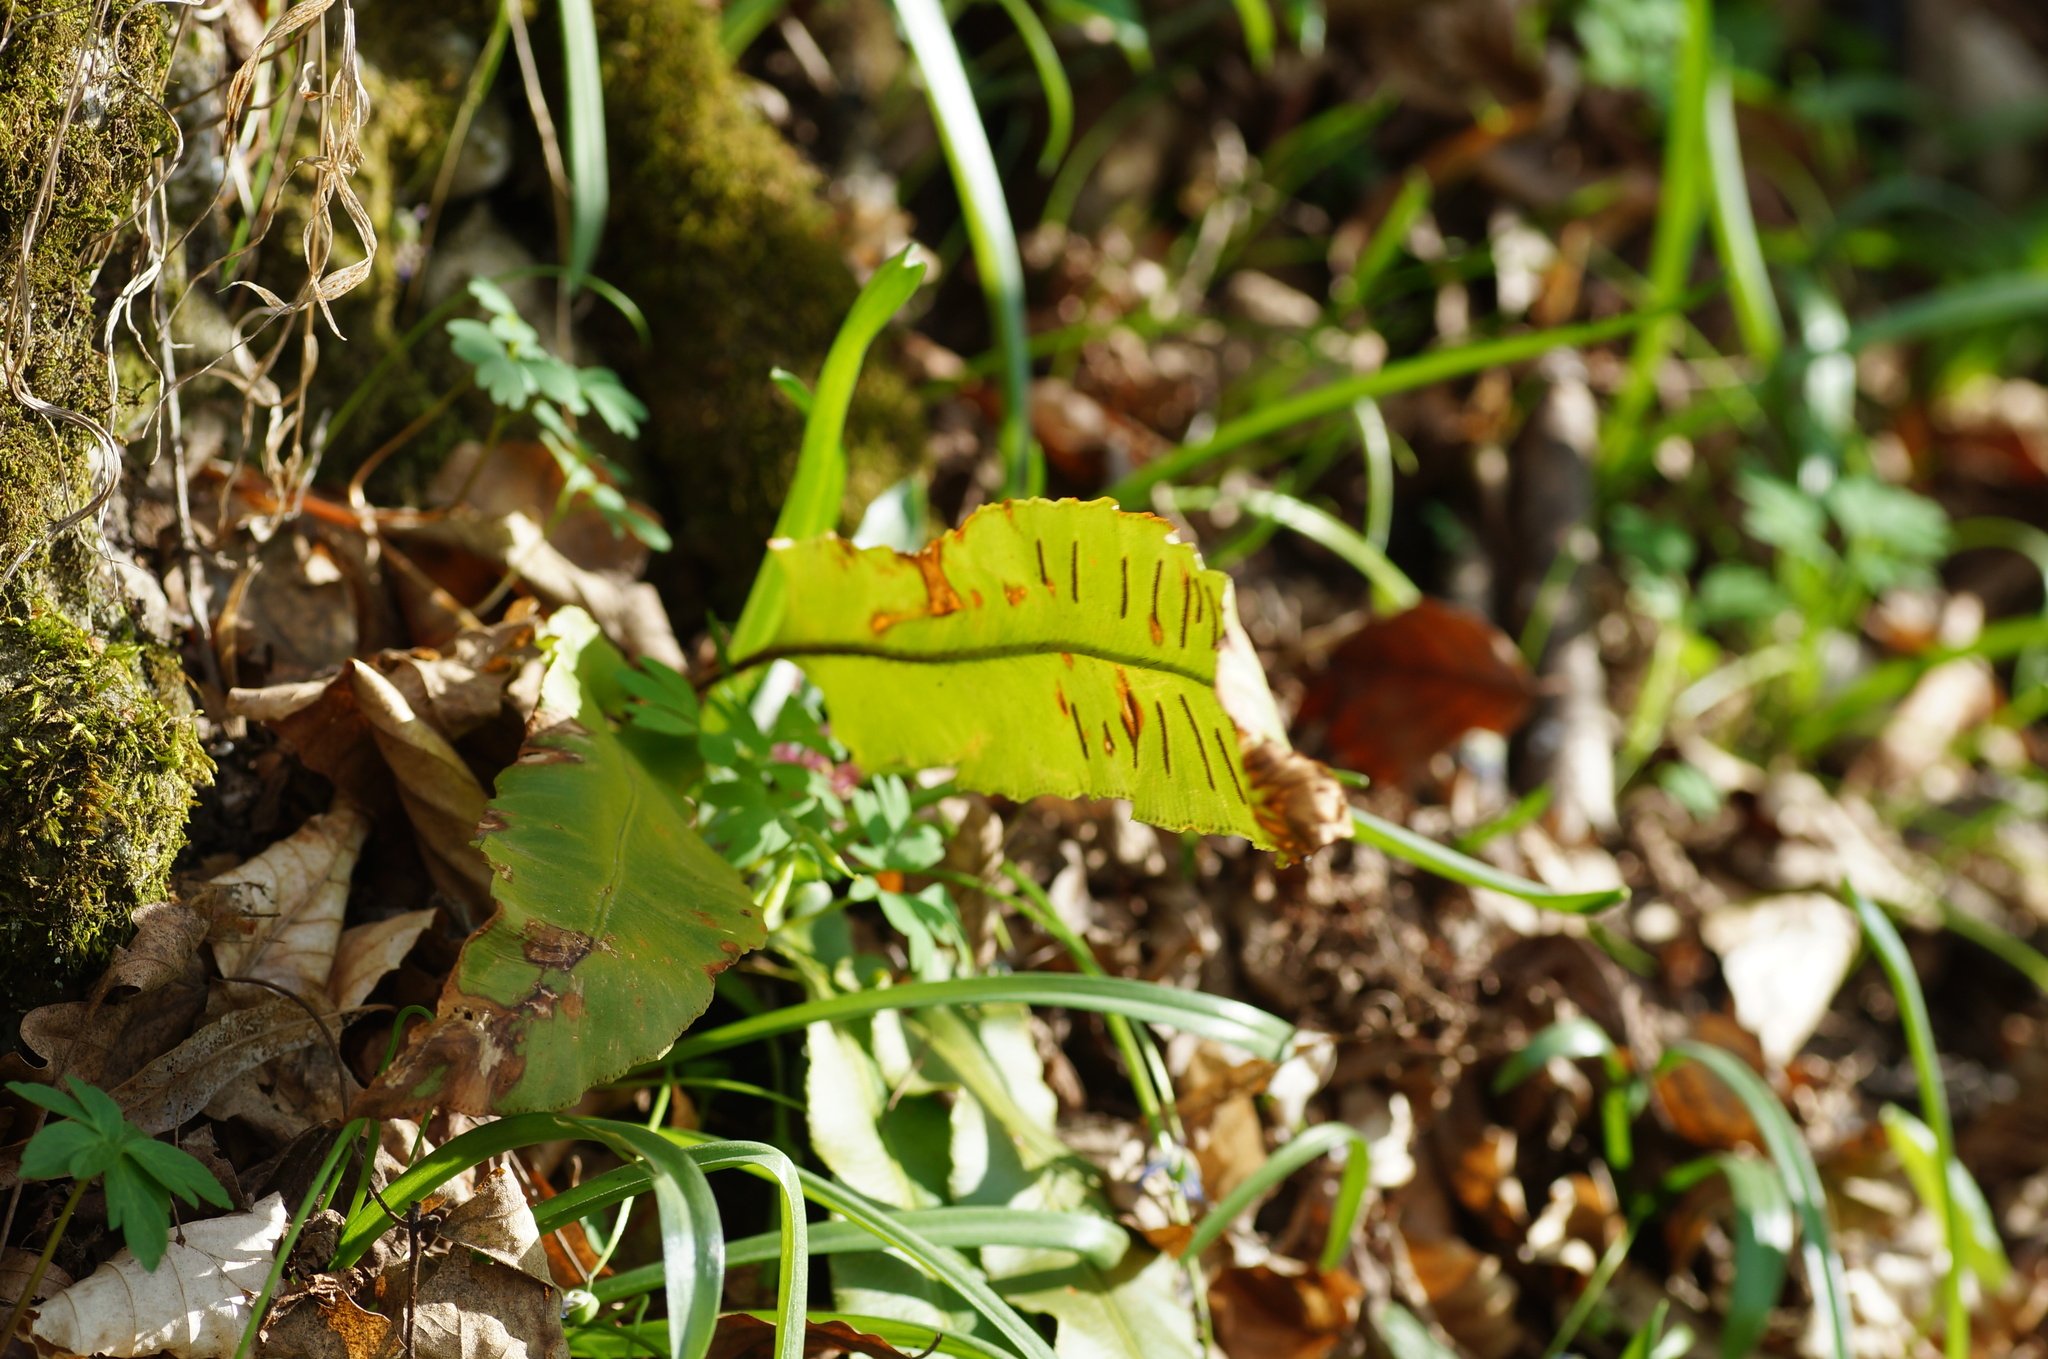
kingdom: Plantae
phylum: Tracheophyta
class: Polypodiopsida
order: Polypodiales
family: Aspleniaceae
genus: Asplenium
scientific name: Asplenium scolopendrium
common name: Hart's-tongue fern
